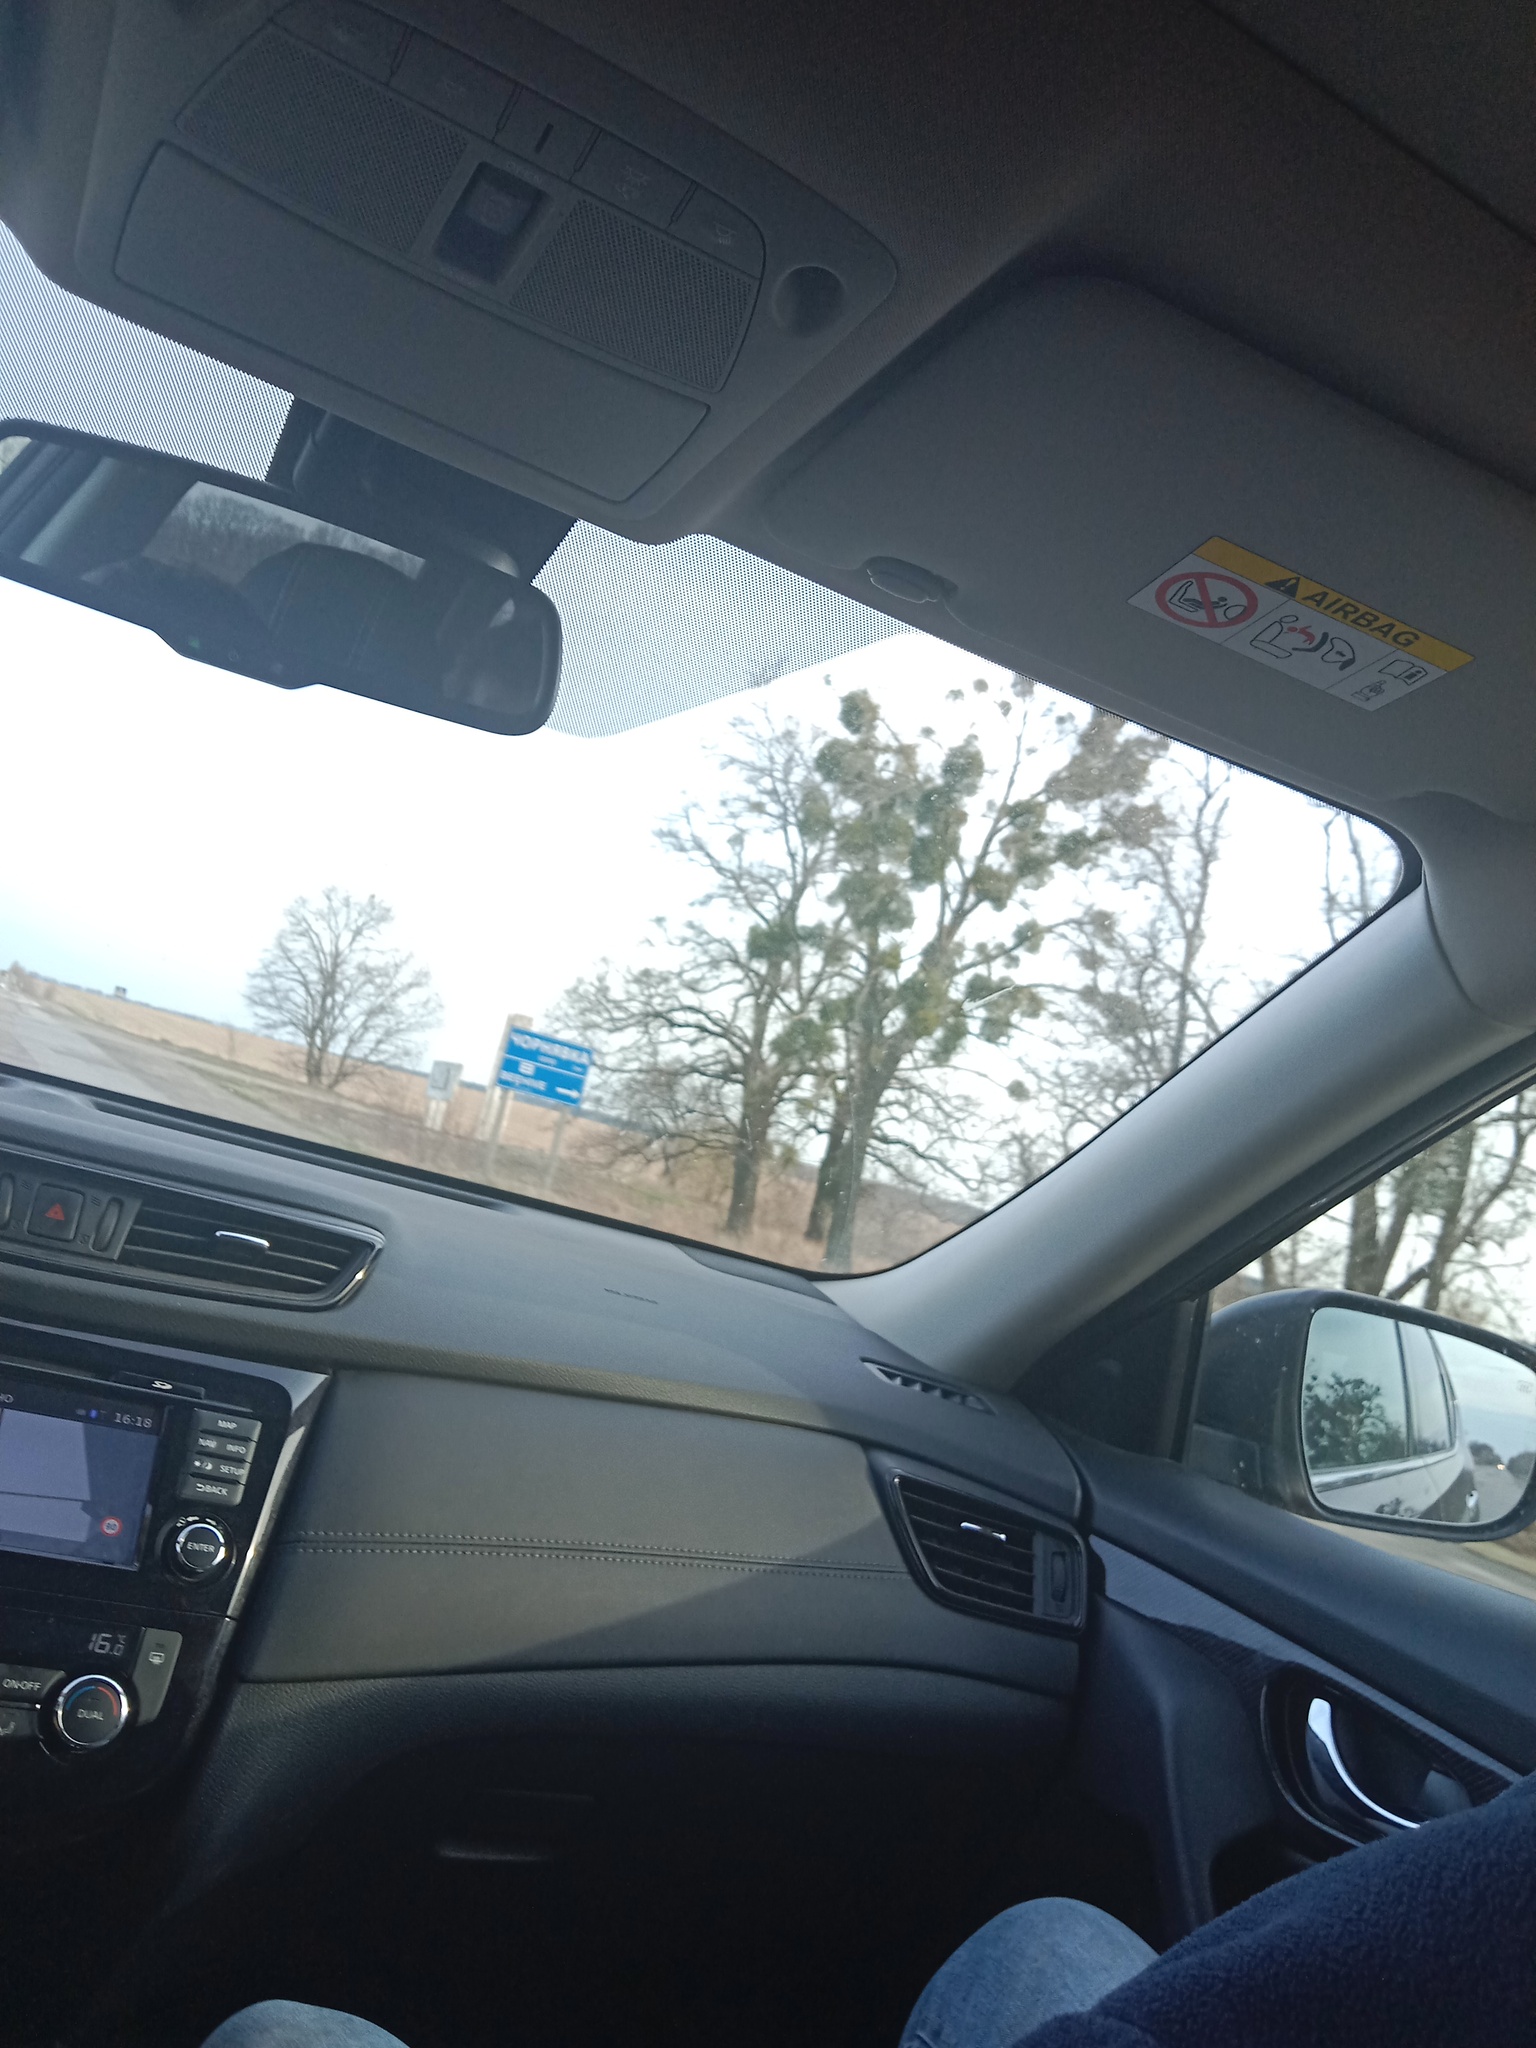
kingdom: Plantae
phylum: Tracheophyta
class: Magnoliopsida
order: Santalales
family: Viscaceae
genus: Viscum
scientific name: Viscum album
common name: Mistletoe
